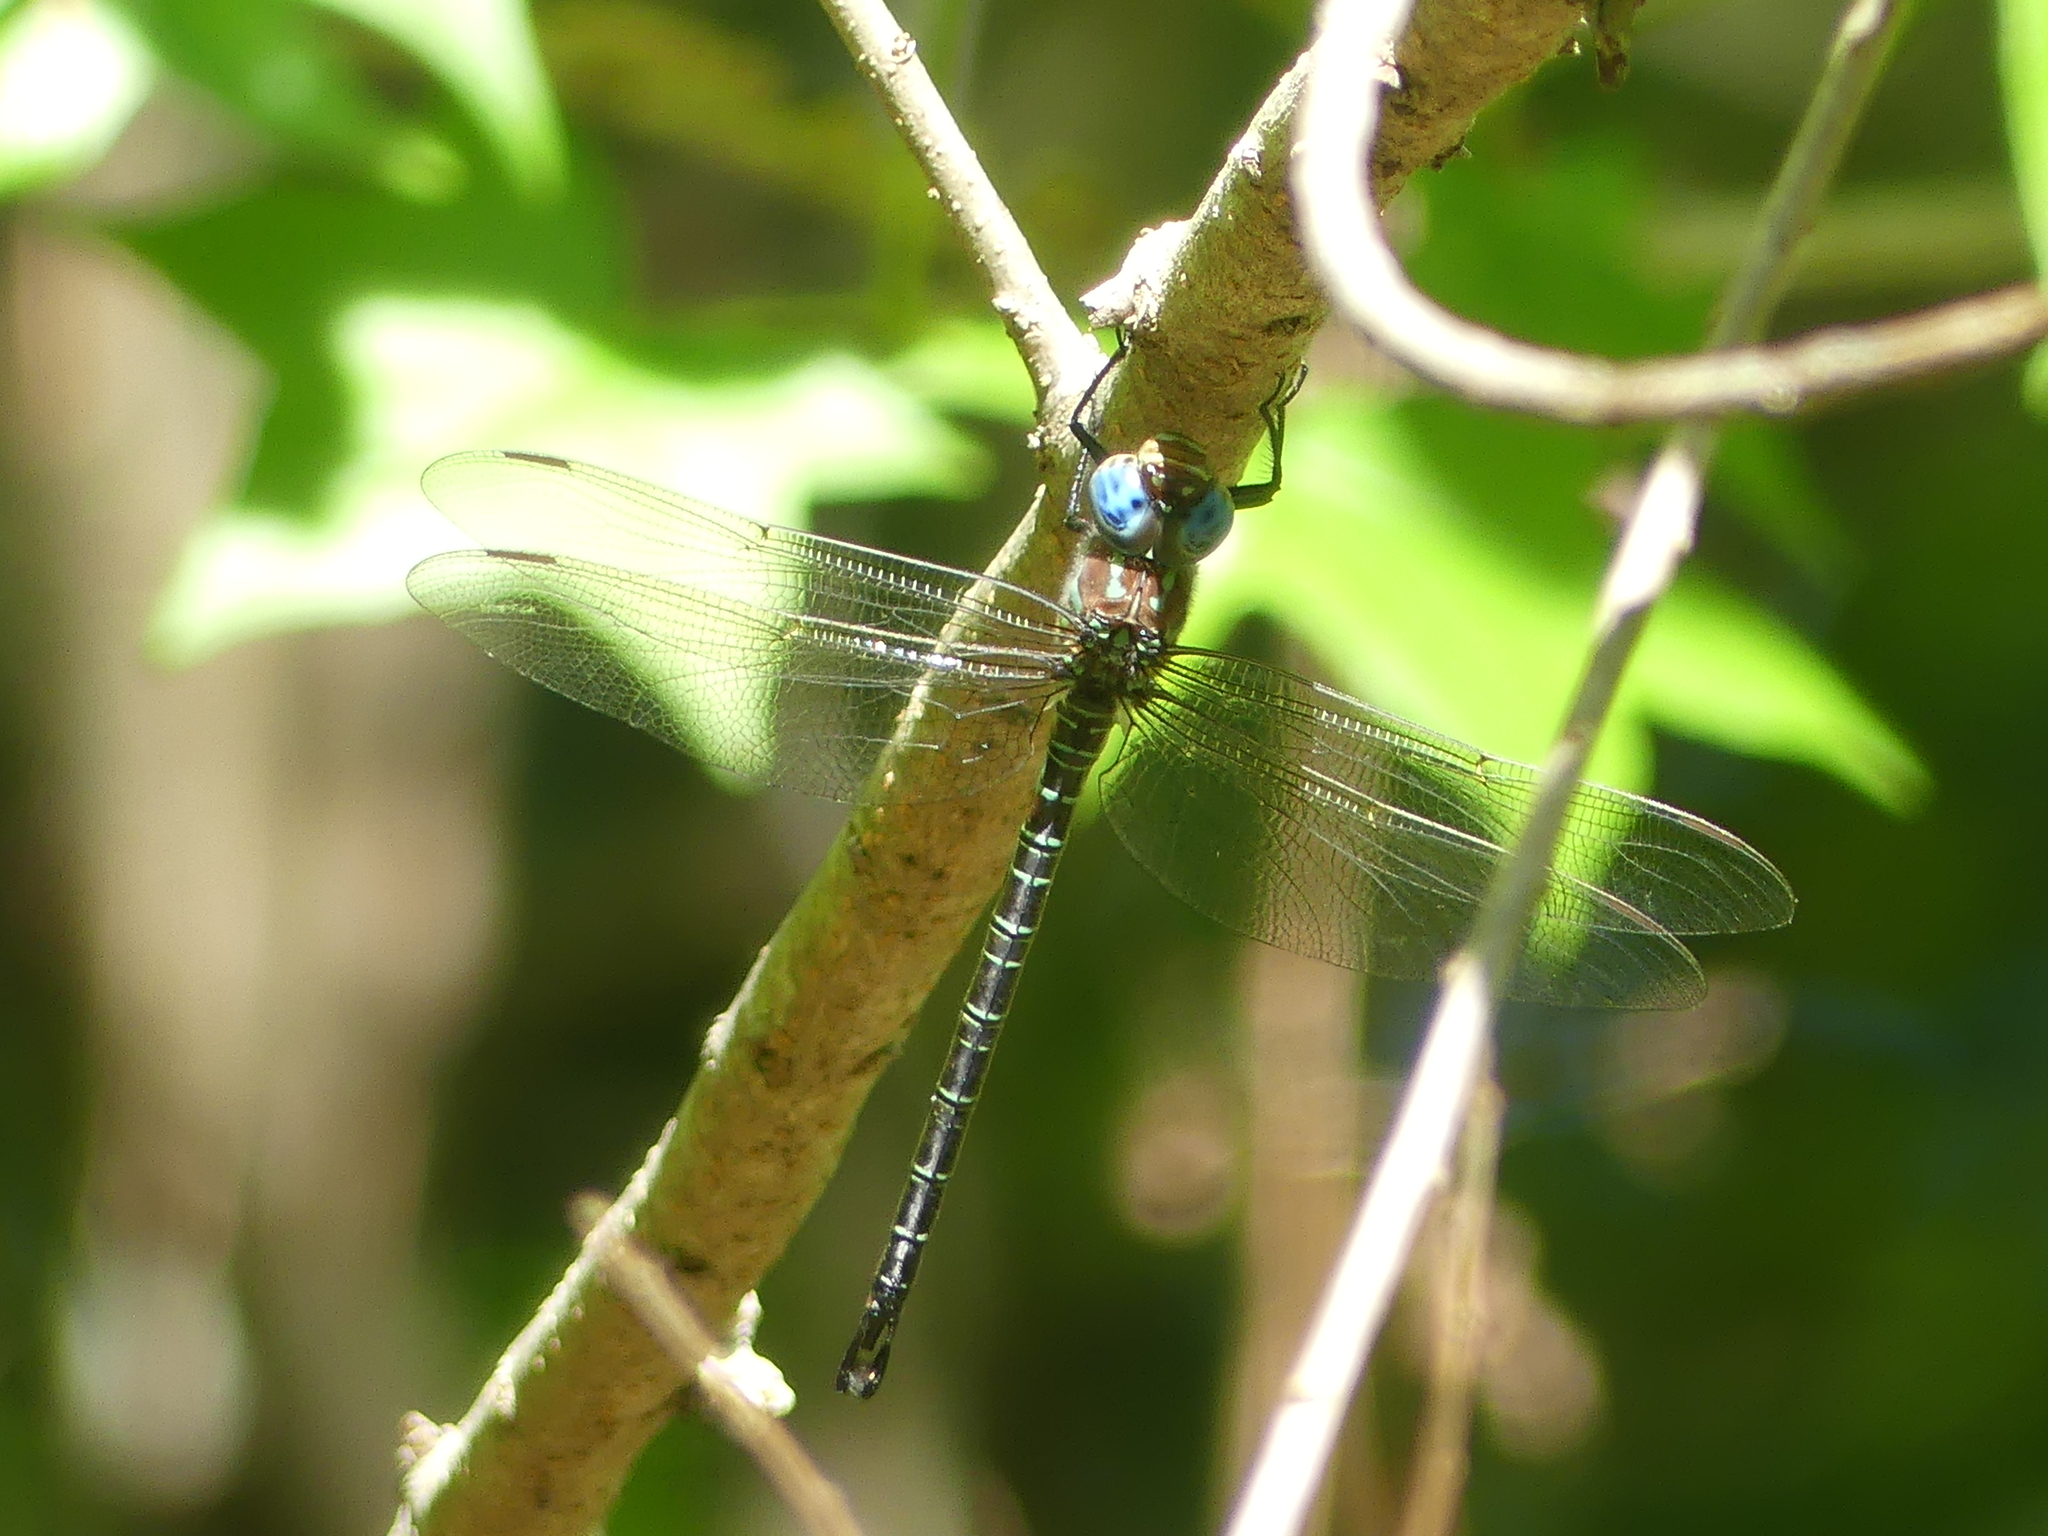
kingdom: Animalia
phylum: Arthropoda
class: Insecta
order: Odonata
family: Aeshnidae
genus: Epiaeschna
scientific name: Epiaeschna heros
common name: Swamp darner
